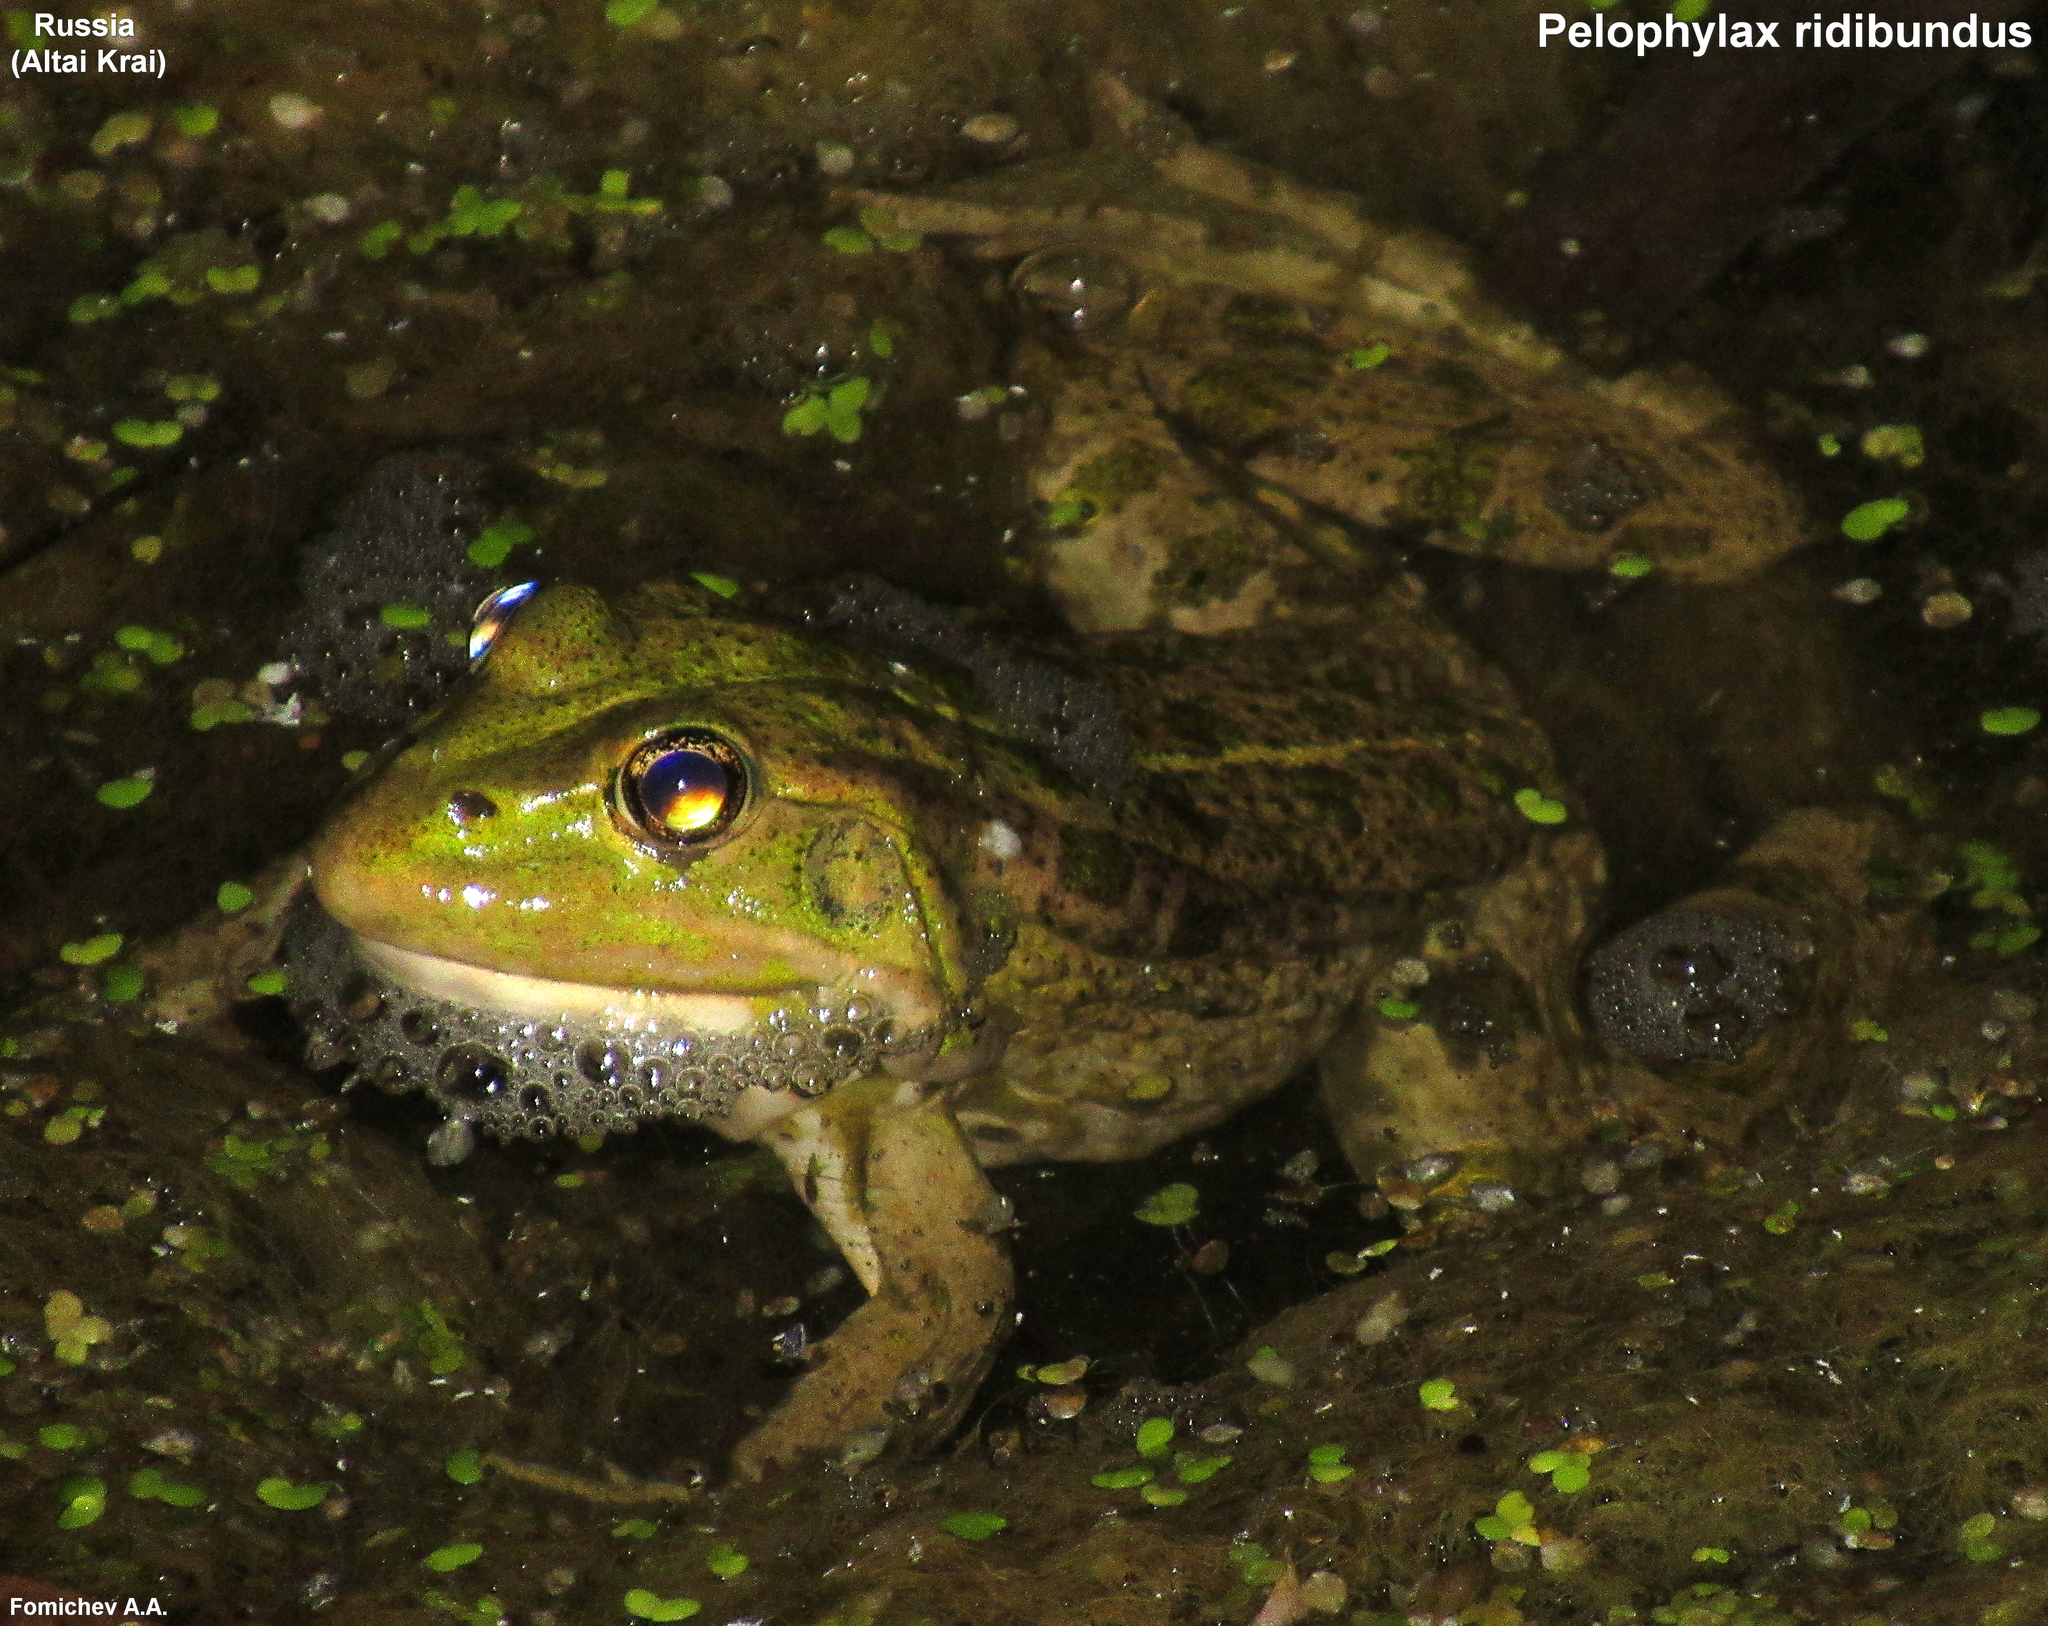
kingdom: Animalia
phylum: Chordata
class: Amphibia
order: Anura
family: Ranidae
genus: Pelophylax
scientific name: Pelophylax ridibundus
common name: Marsh frog
